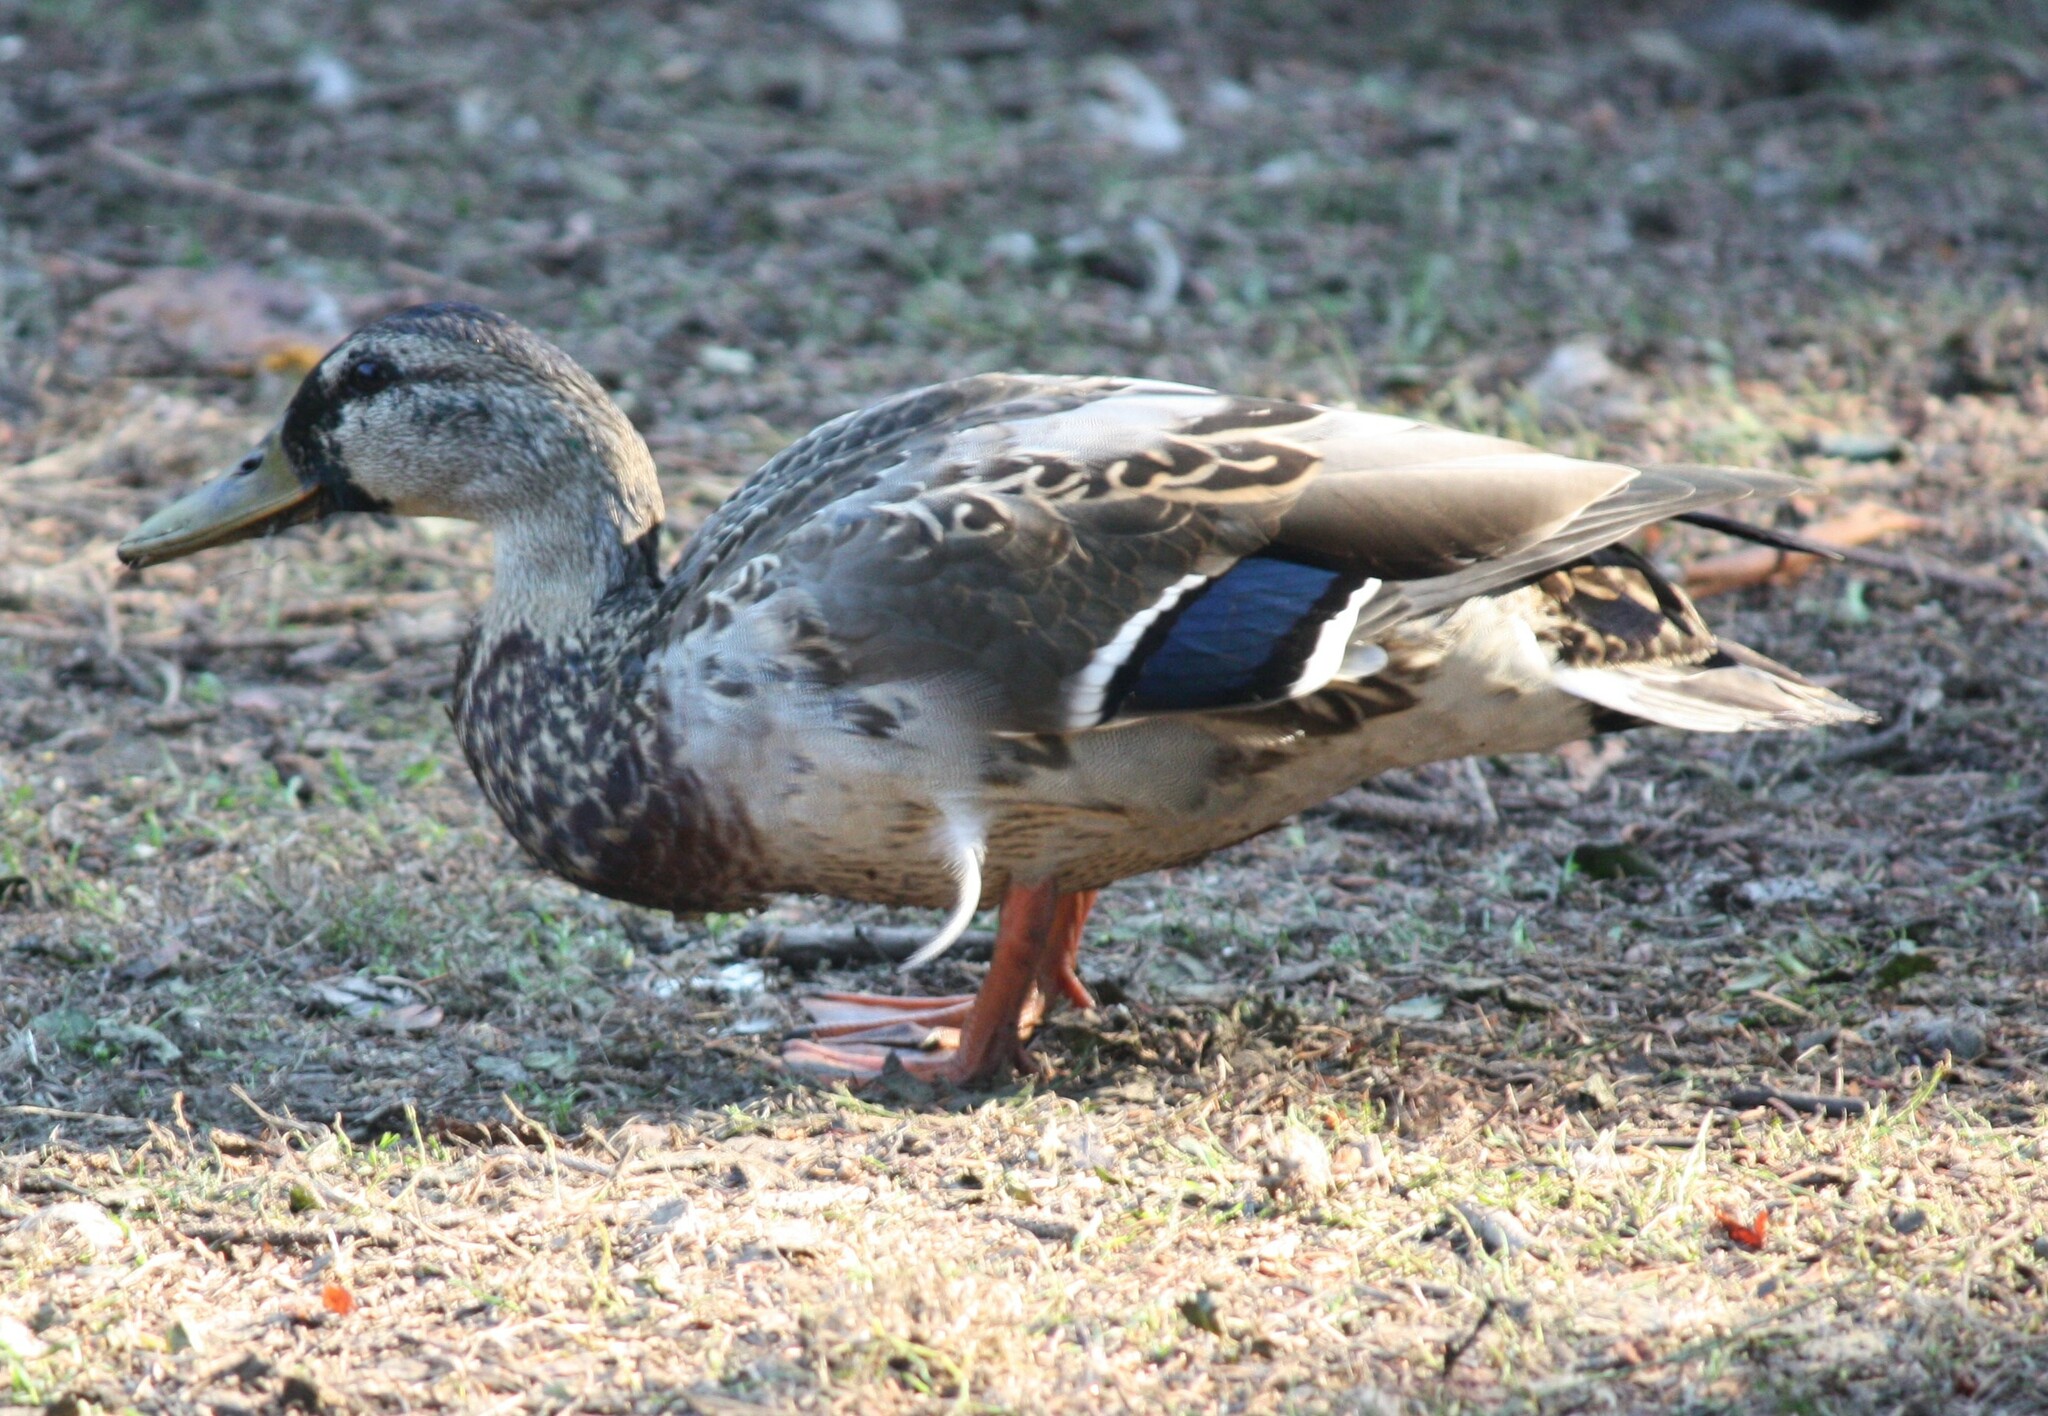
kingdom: Animalia
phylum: Chordata
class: Aves
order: Anseriformes
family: Anatidae
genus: Anas
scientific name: Anas platyrhynchos
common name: Mallard
